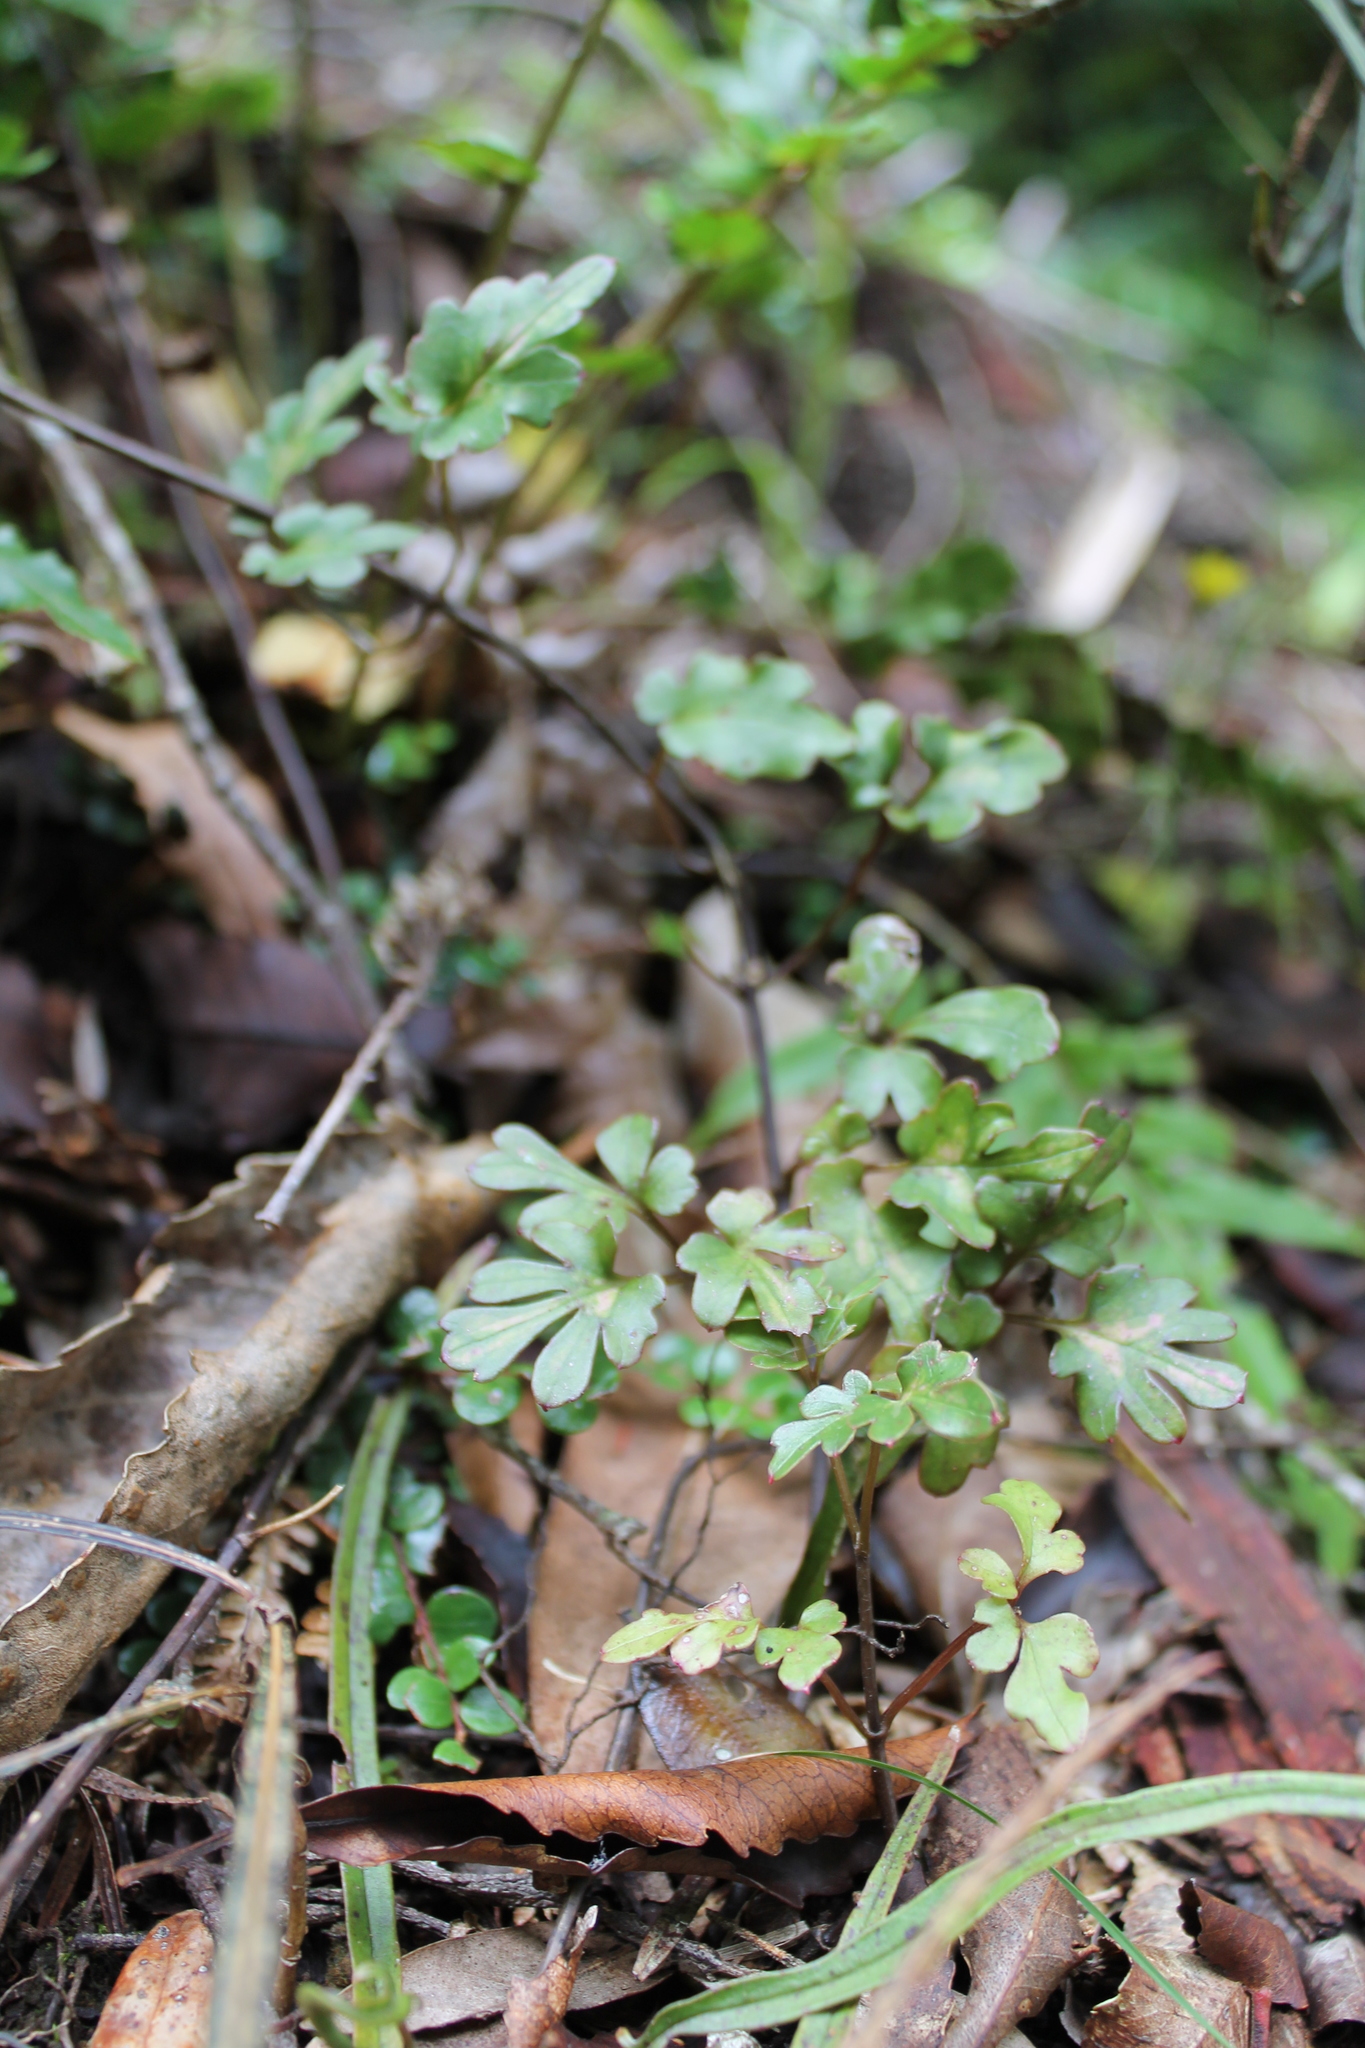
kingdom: Plantae
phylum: Tracheophyta
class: Magnoliopsida
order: Ranunculales
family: Ranunculaceae
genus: Clematis
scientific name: Clematis paniculata
